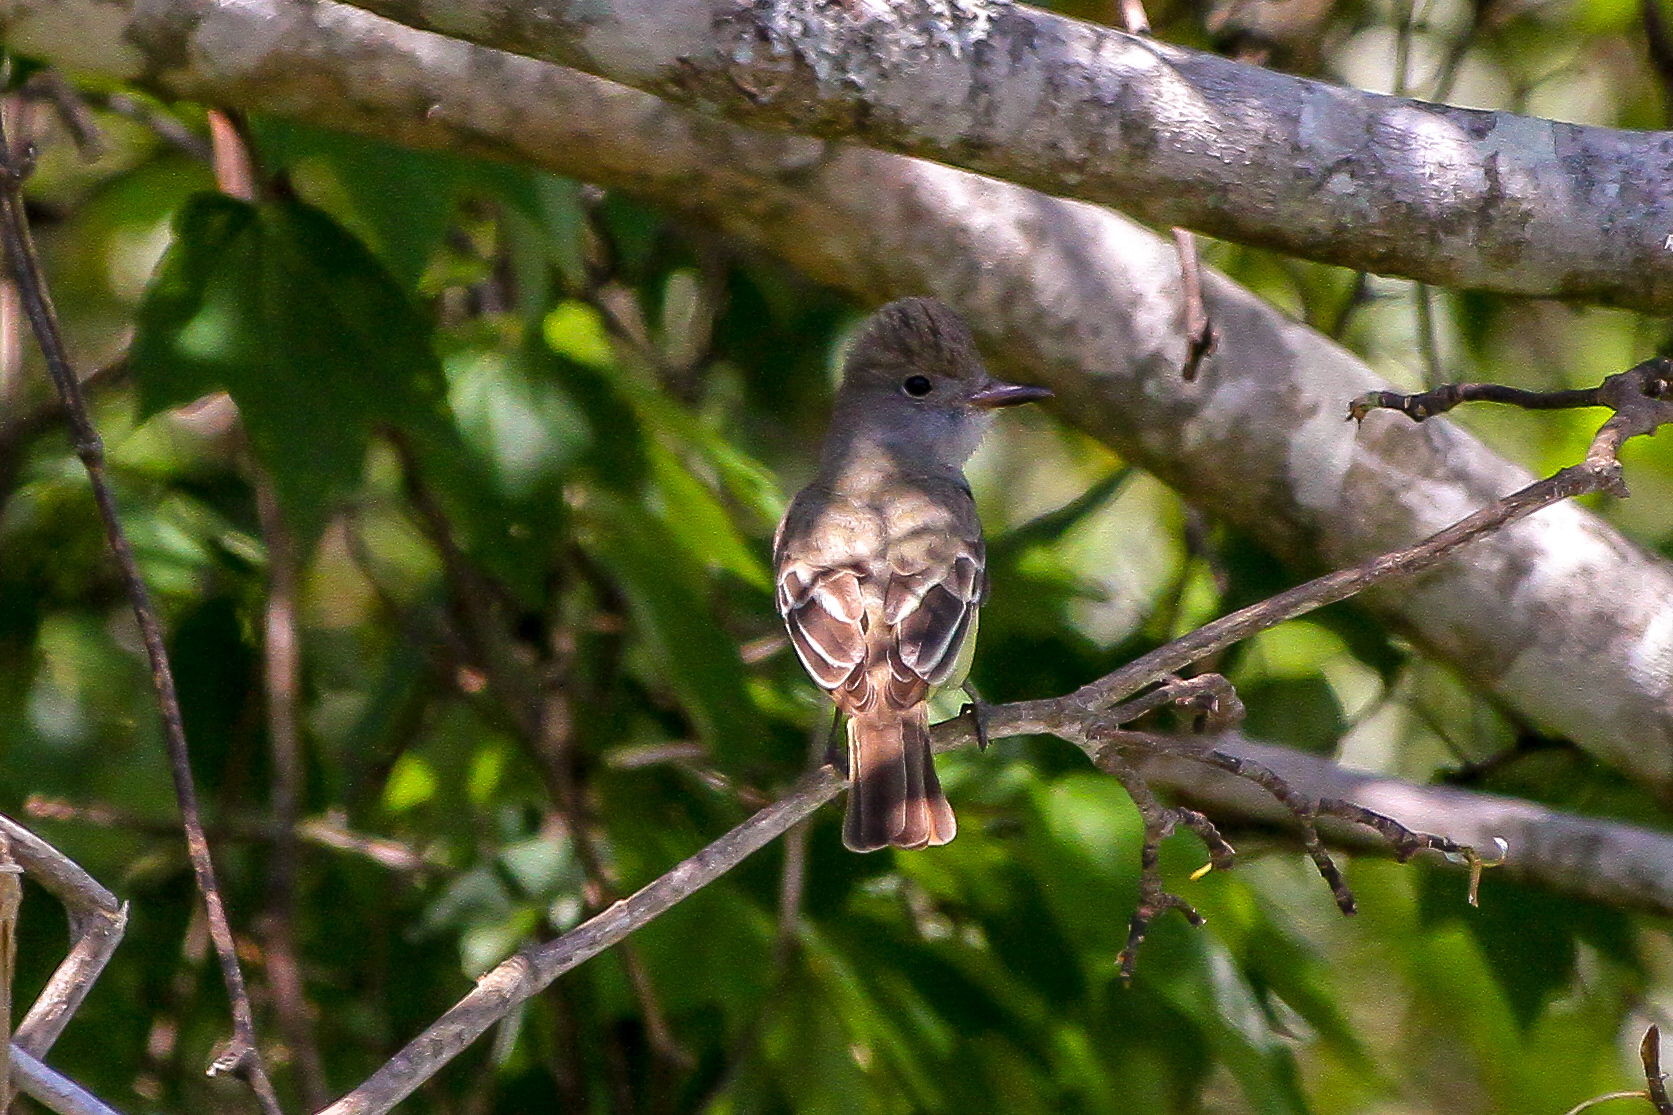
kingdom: Animalia
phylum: Chordata
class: Aves
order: Passeriformes
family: Tyrannidae
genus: Myiarchus
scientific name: Myiarchus crinitus
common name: Great crested flycatcher
